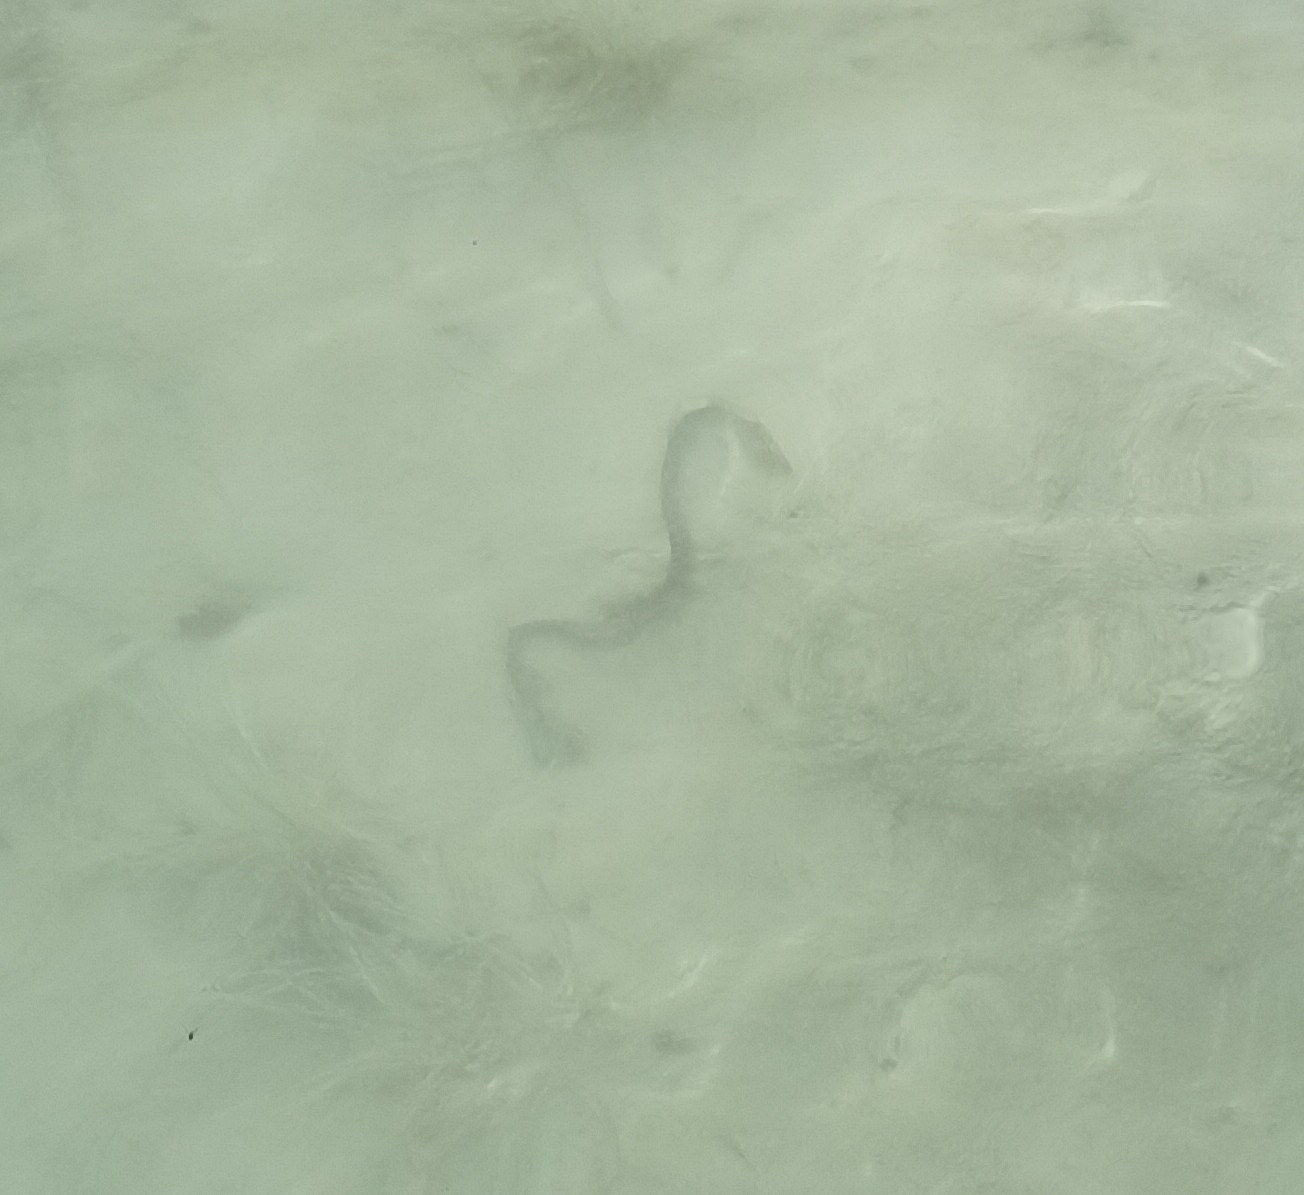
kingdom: Animalia
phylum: Chordata
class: Squamata
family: Colubridae
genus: Natrix
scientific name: Natrix maura
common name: Viperine water snake
